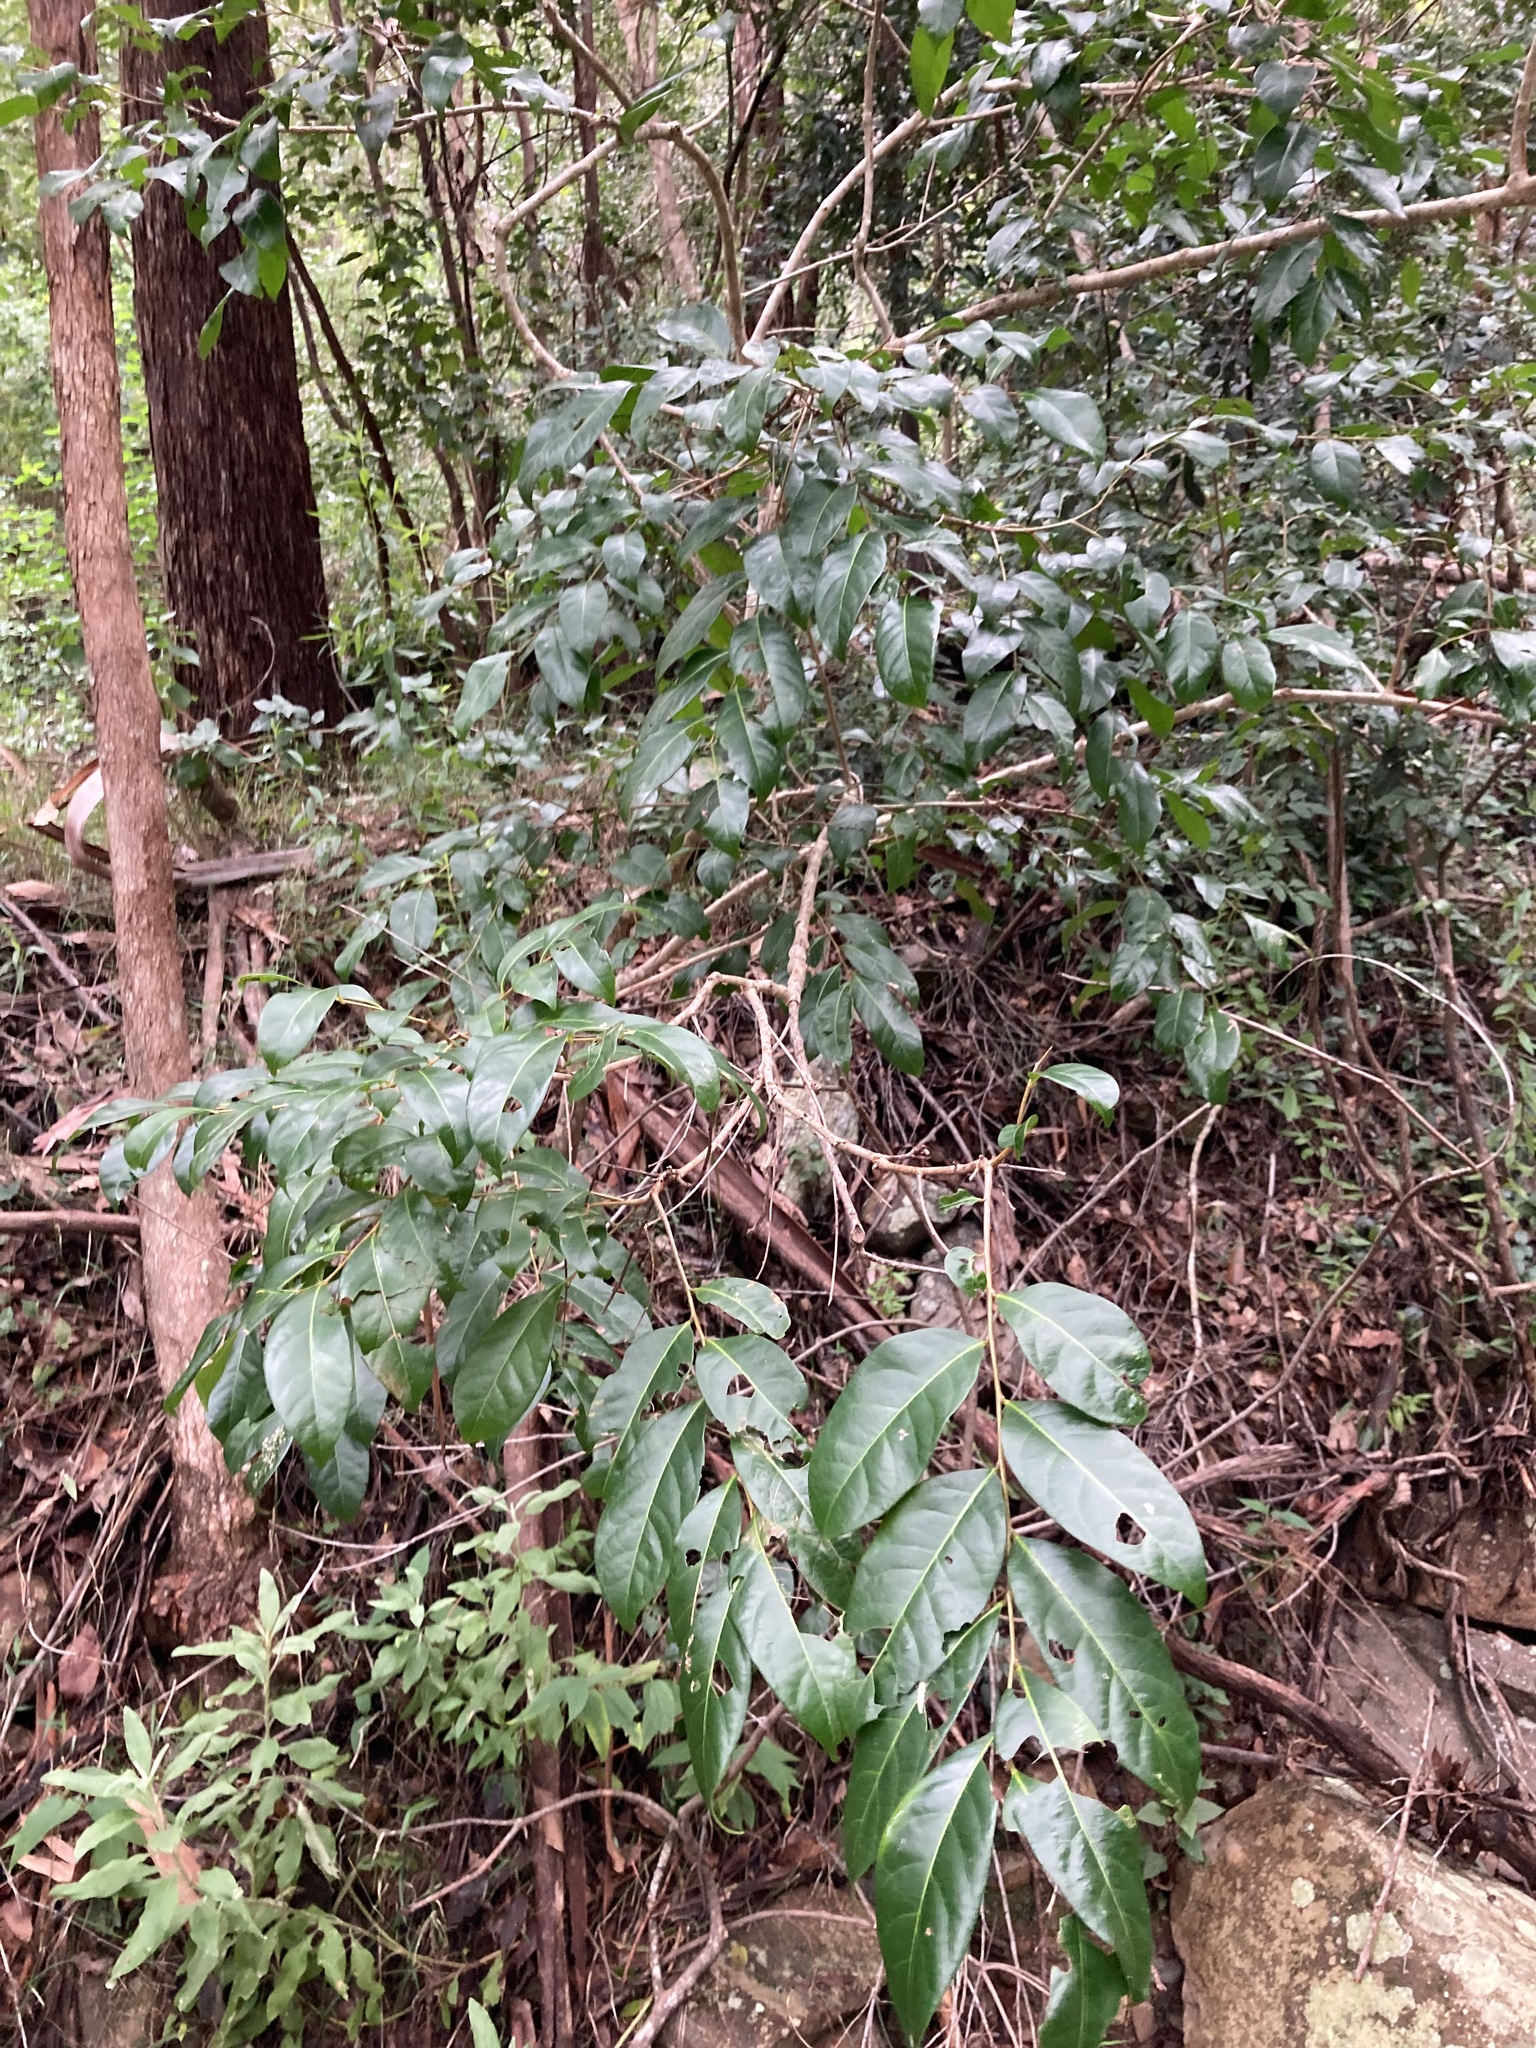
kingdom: Plantae
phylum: Tracheophyta
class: Magnoliopsida
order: Malpighiales
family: Phyllanthaceae
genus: Glochidion
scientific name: Glochidion ferdinandi
